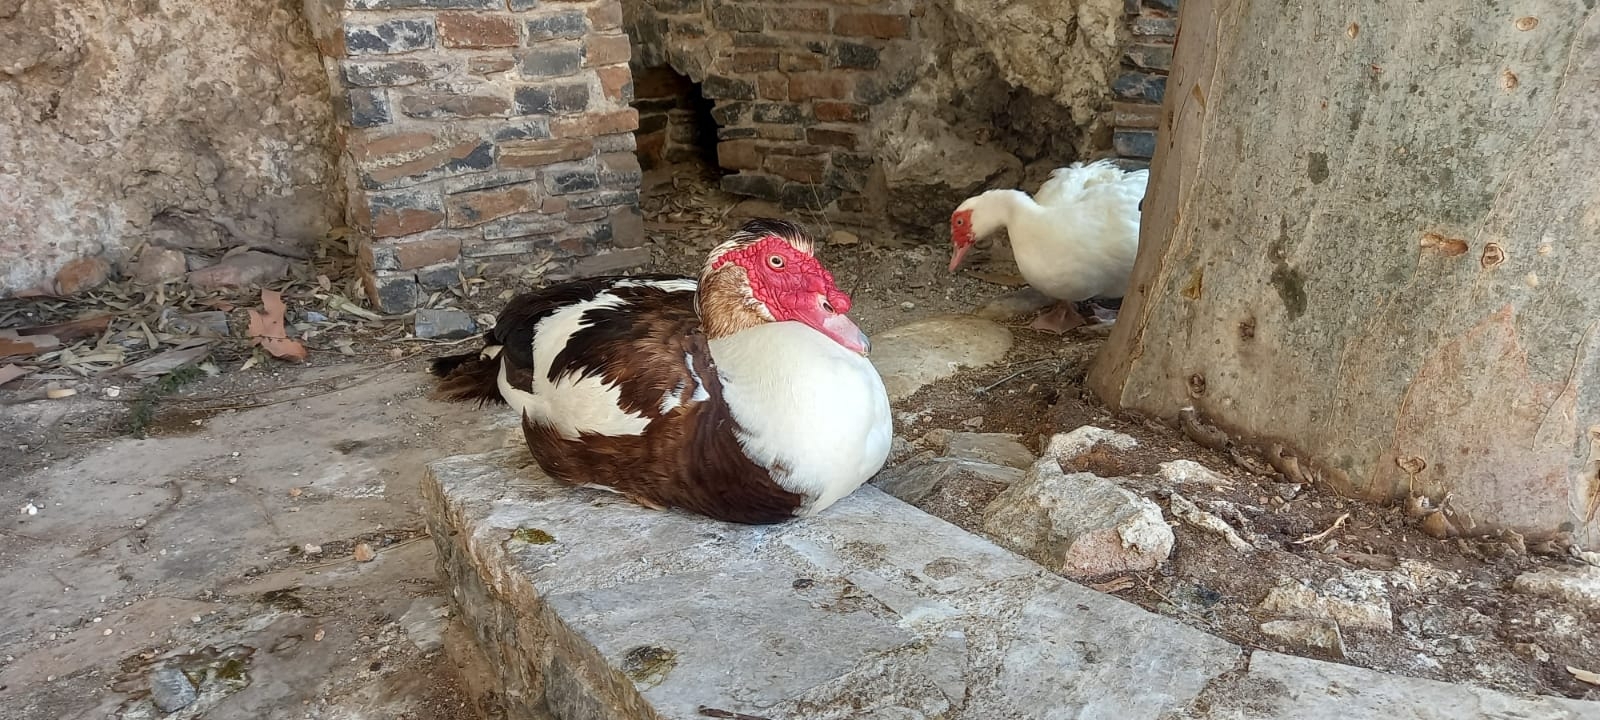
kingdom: Animalia
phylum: Chordata
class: Aves
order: Anseriformes
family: Anatidae
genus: Cairina
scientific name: Cairina moschata
